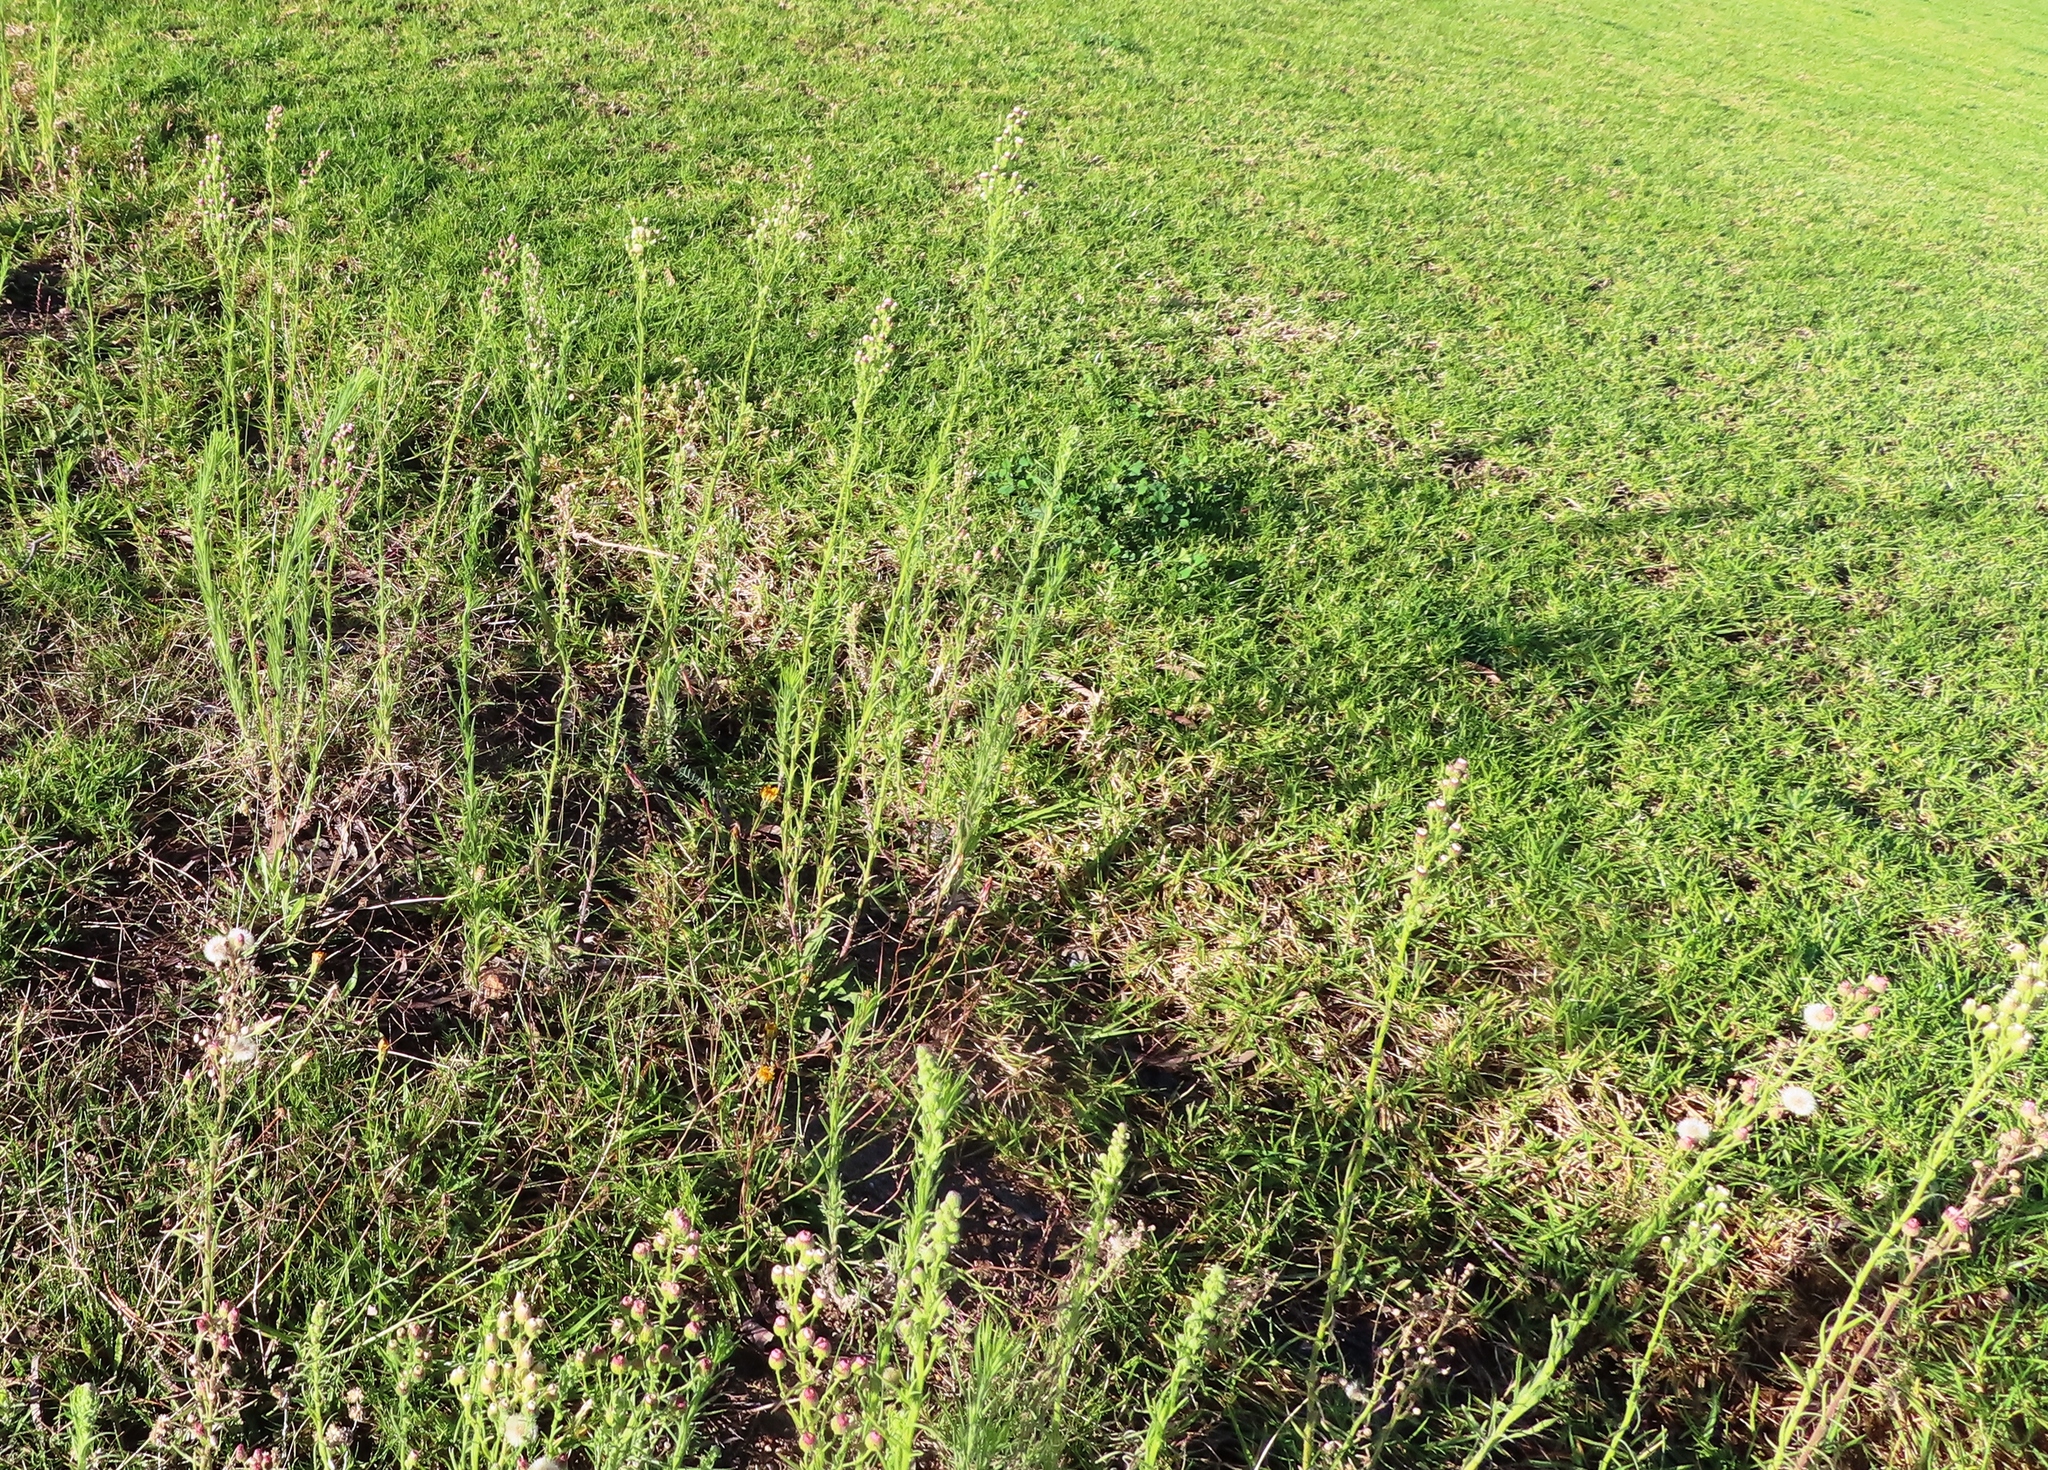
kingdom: Plantae
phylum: Tracheophyta
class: Magnoliopsida
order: Asterales
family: Asteraceae
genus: Erigeron
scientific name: Erigeron bonariensis
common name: Argentine fleabane
